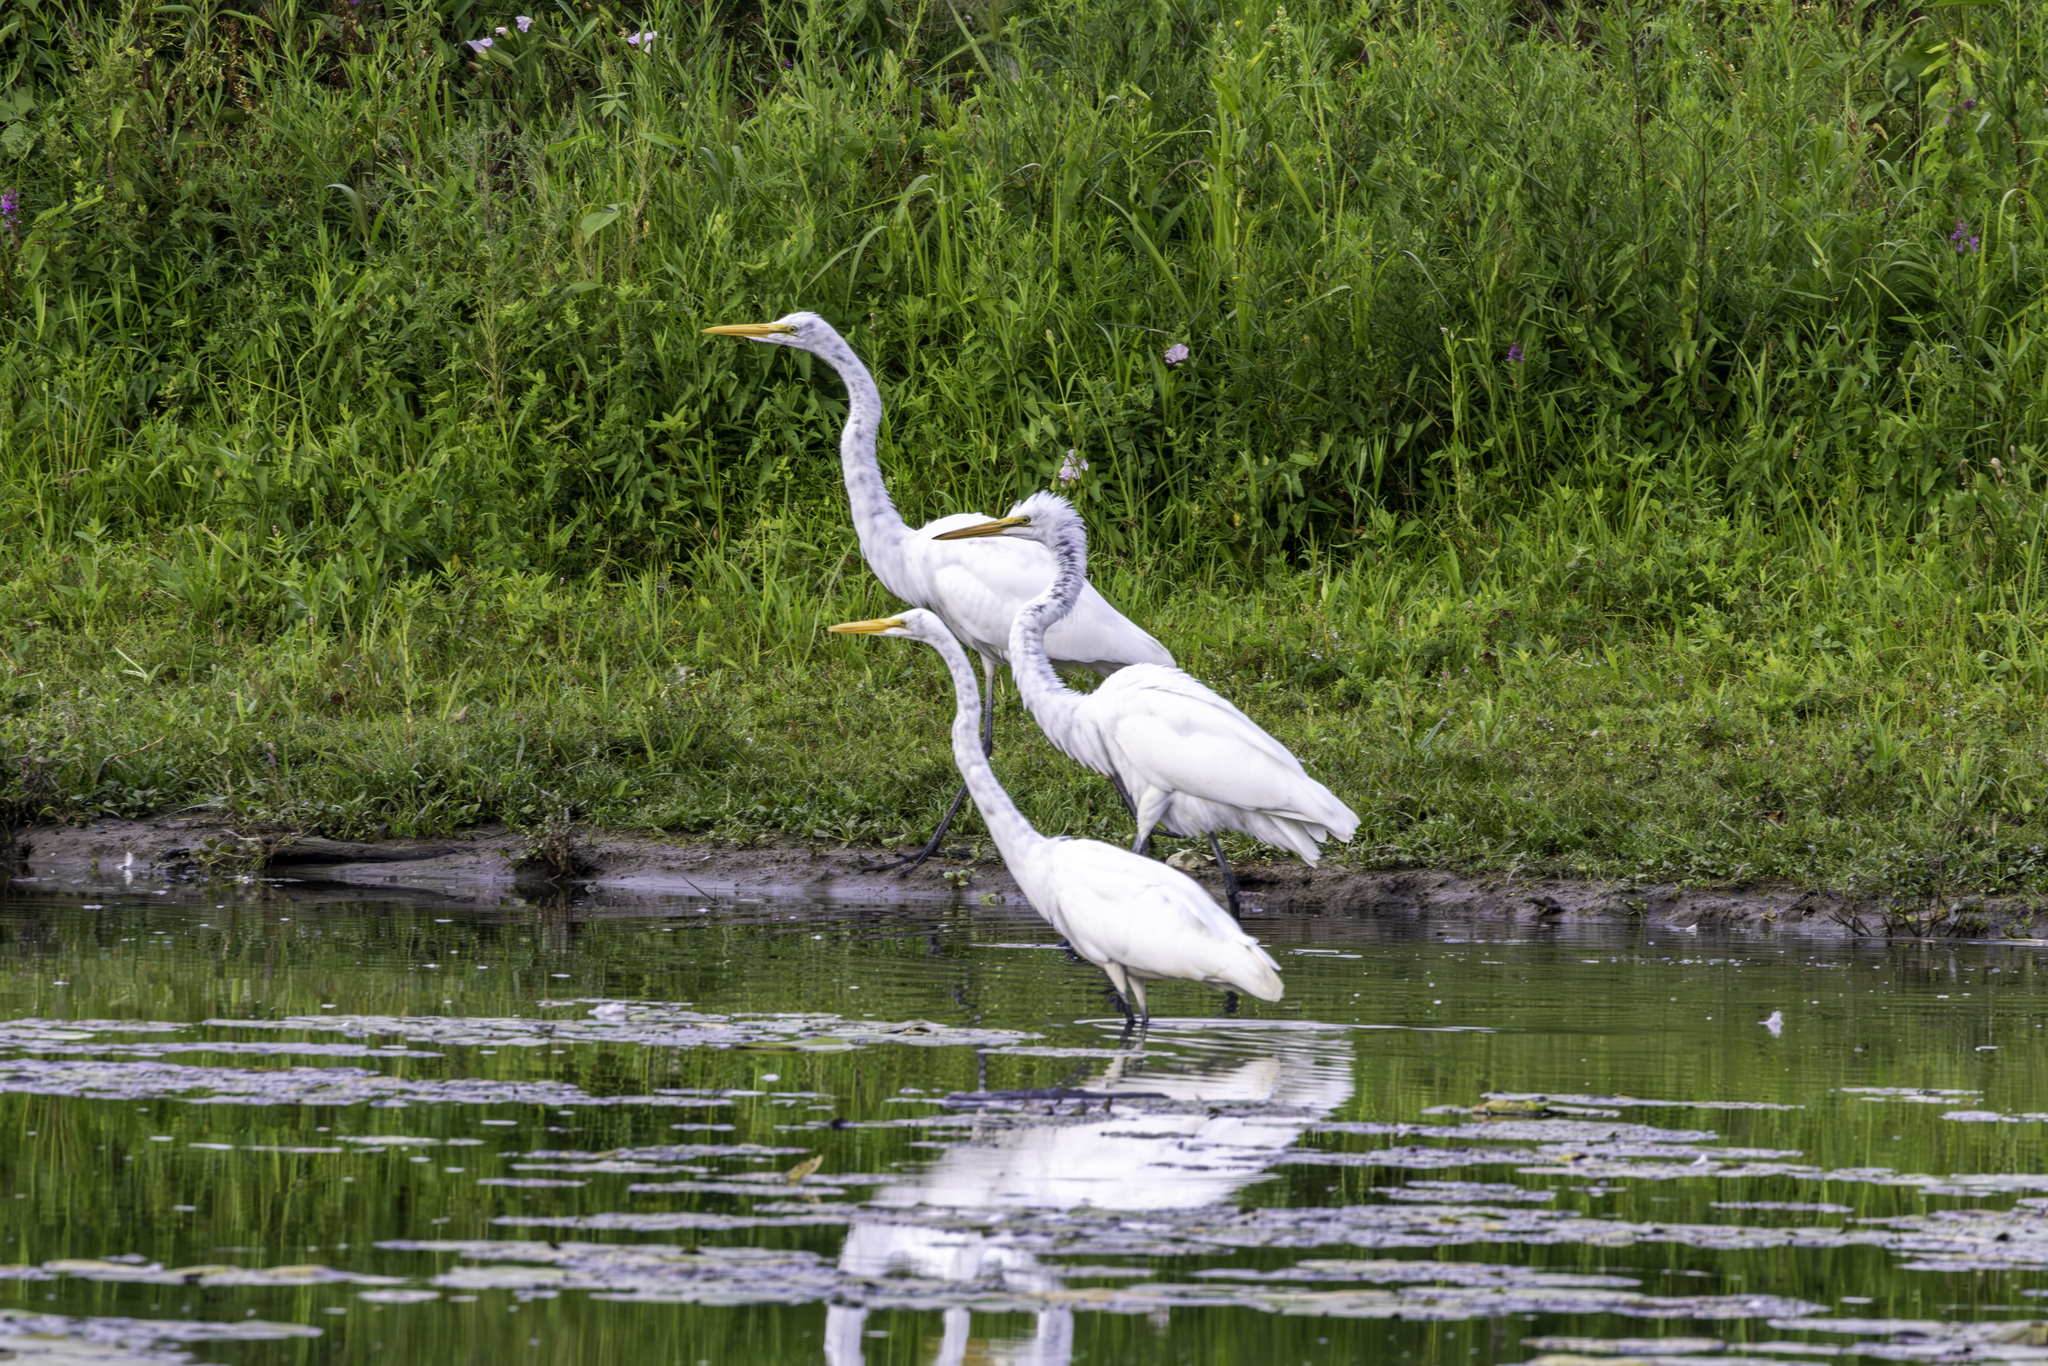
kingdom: Animalia
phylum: Chordata
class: Aves
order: Pelecaniformes
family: Ardeidae
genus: Ardea
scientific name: Ardea alba
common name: Great egret
